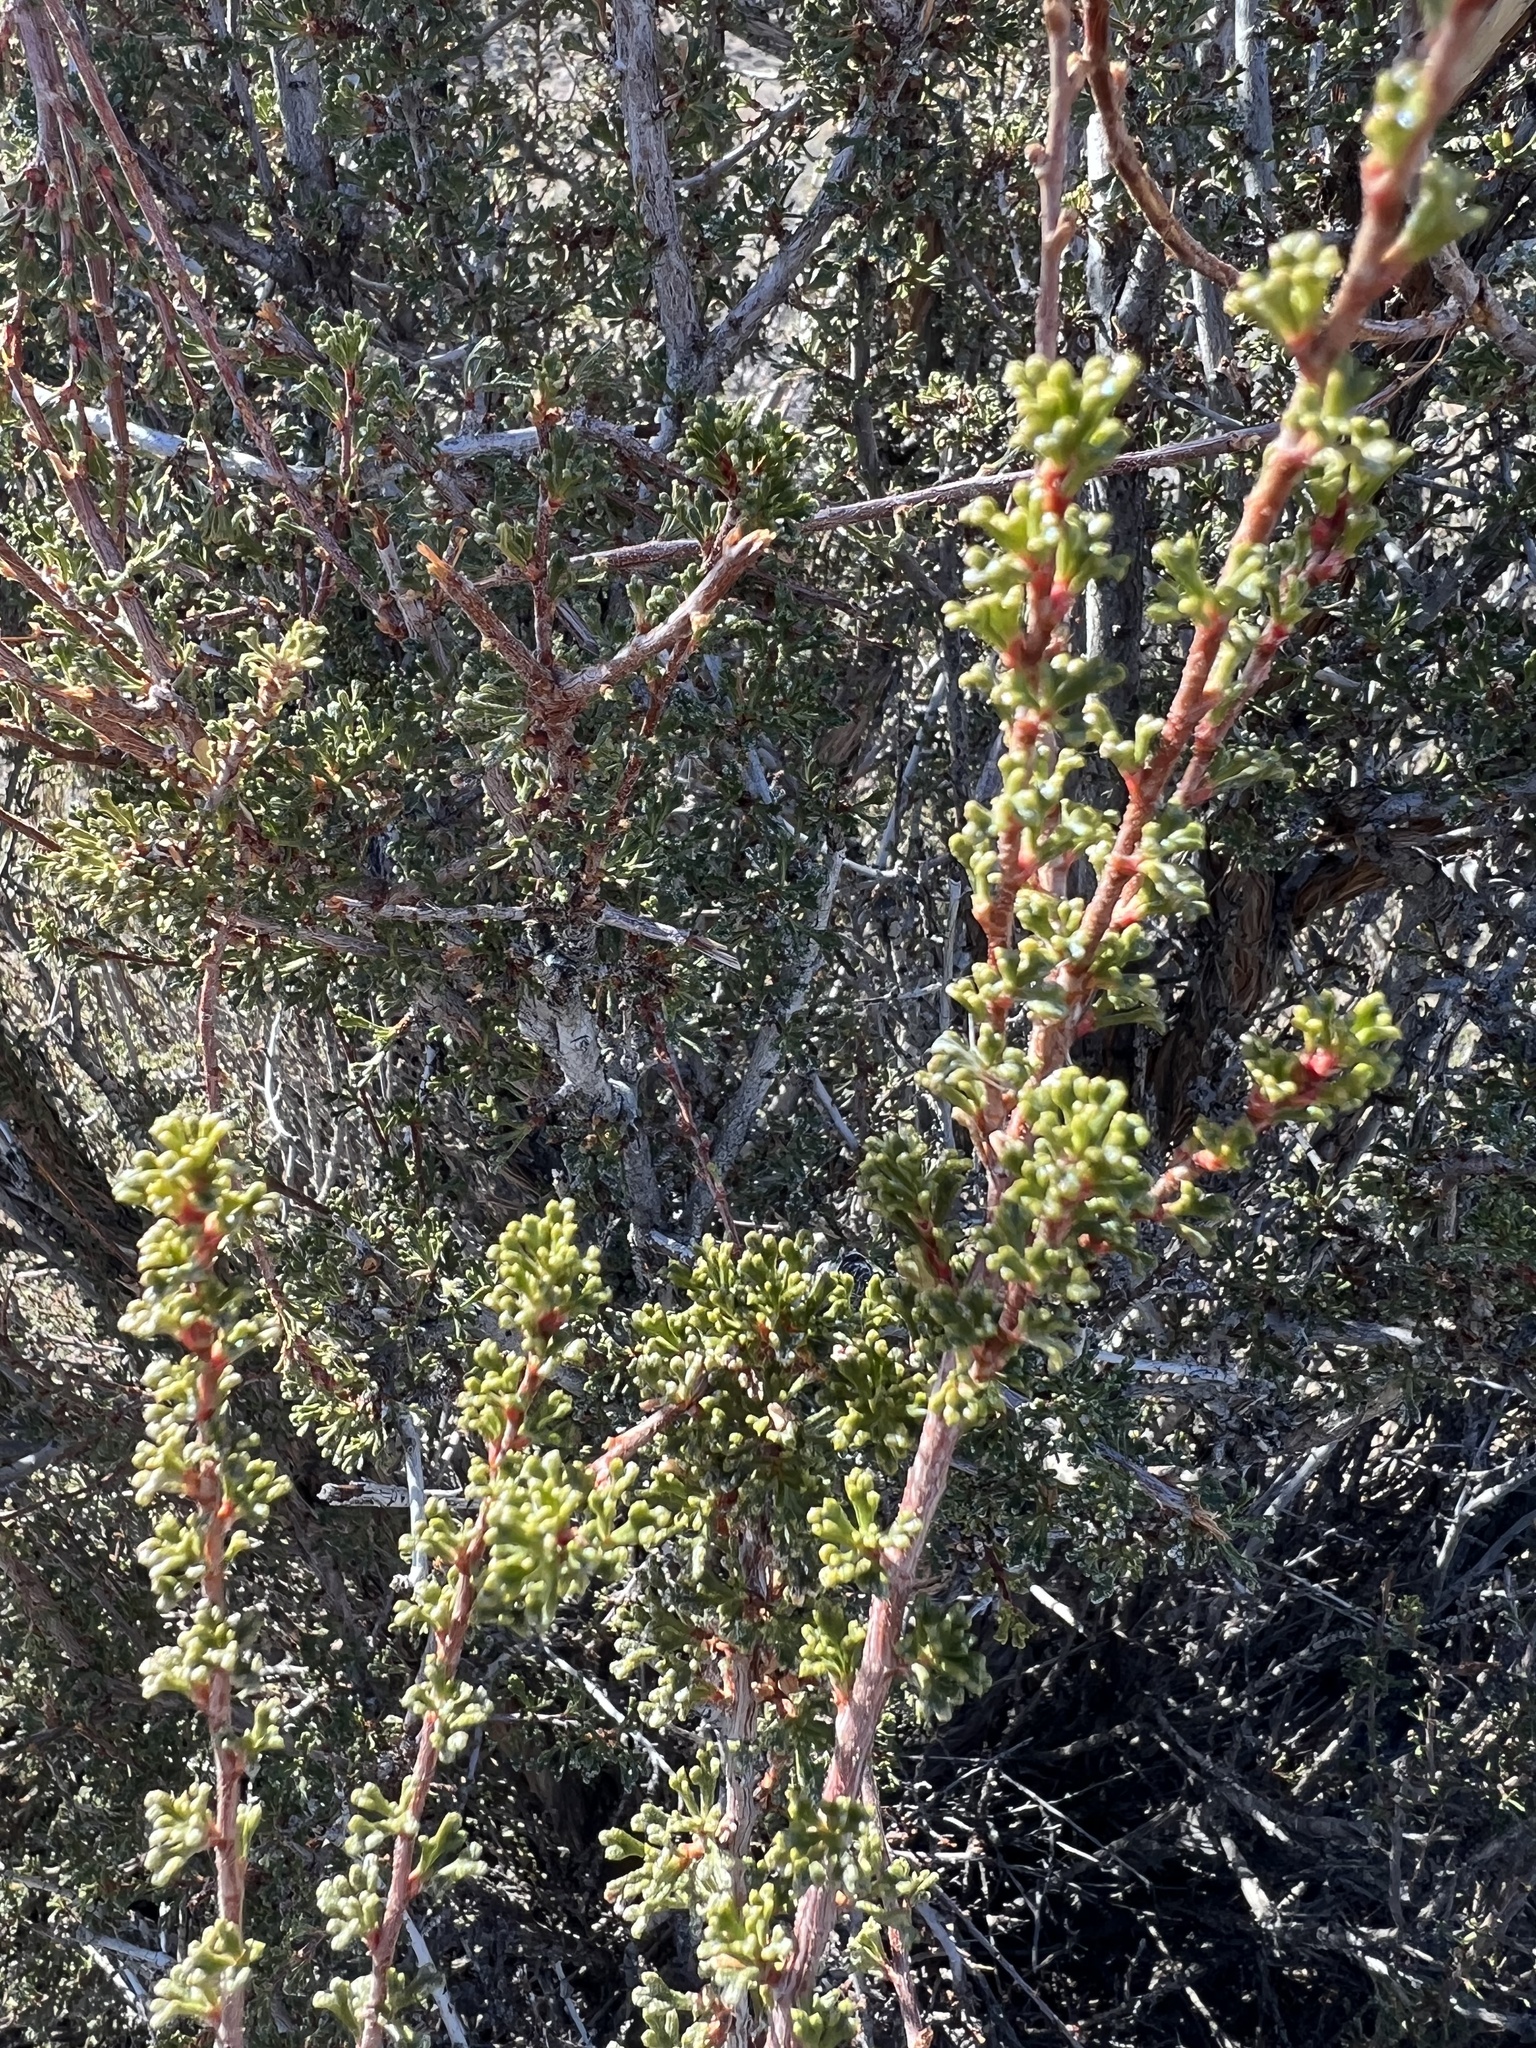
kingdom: Plantae
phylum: Tracheophyta
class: Magnoliopsida
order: Rosales
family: Rosaceae
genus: Purshia
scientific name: Purshia glandulosa
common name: Desert bitterbrush
